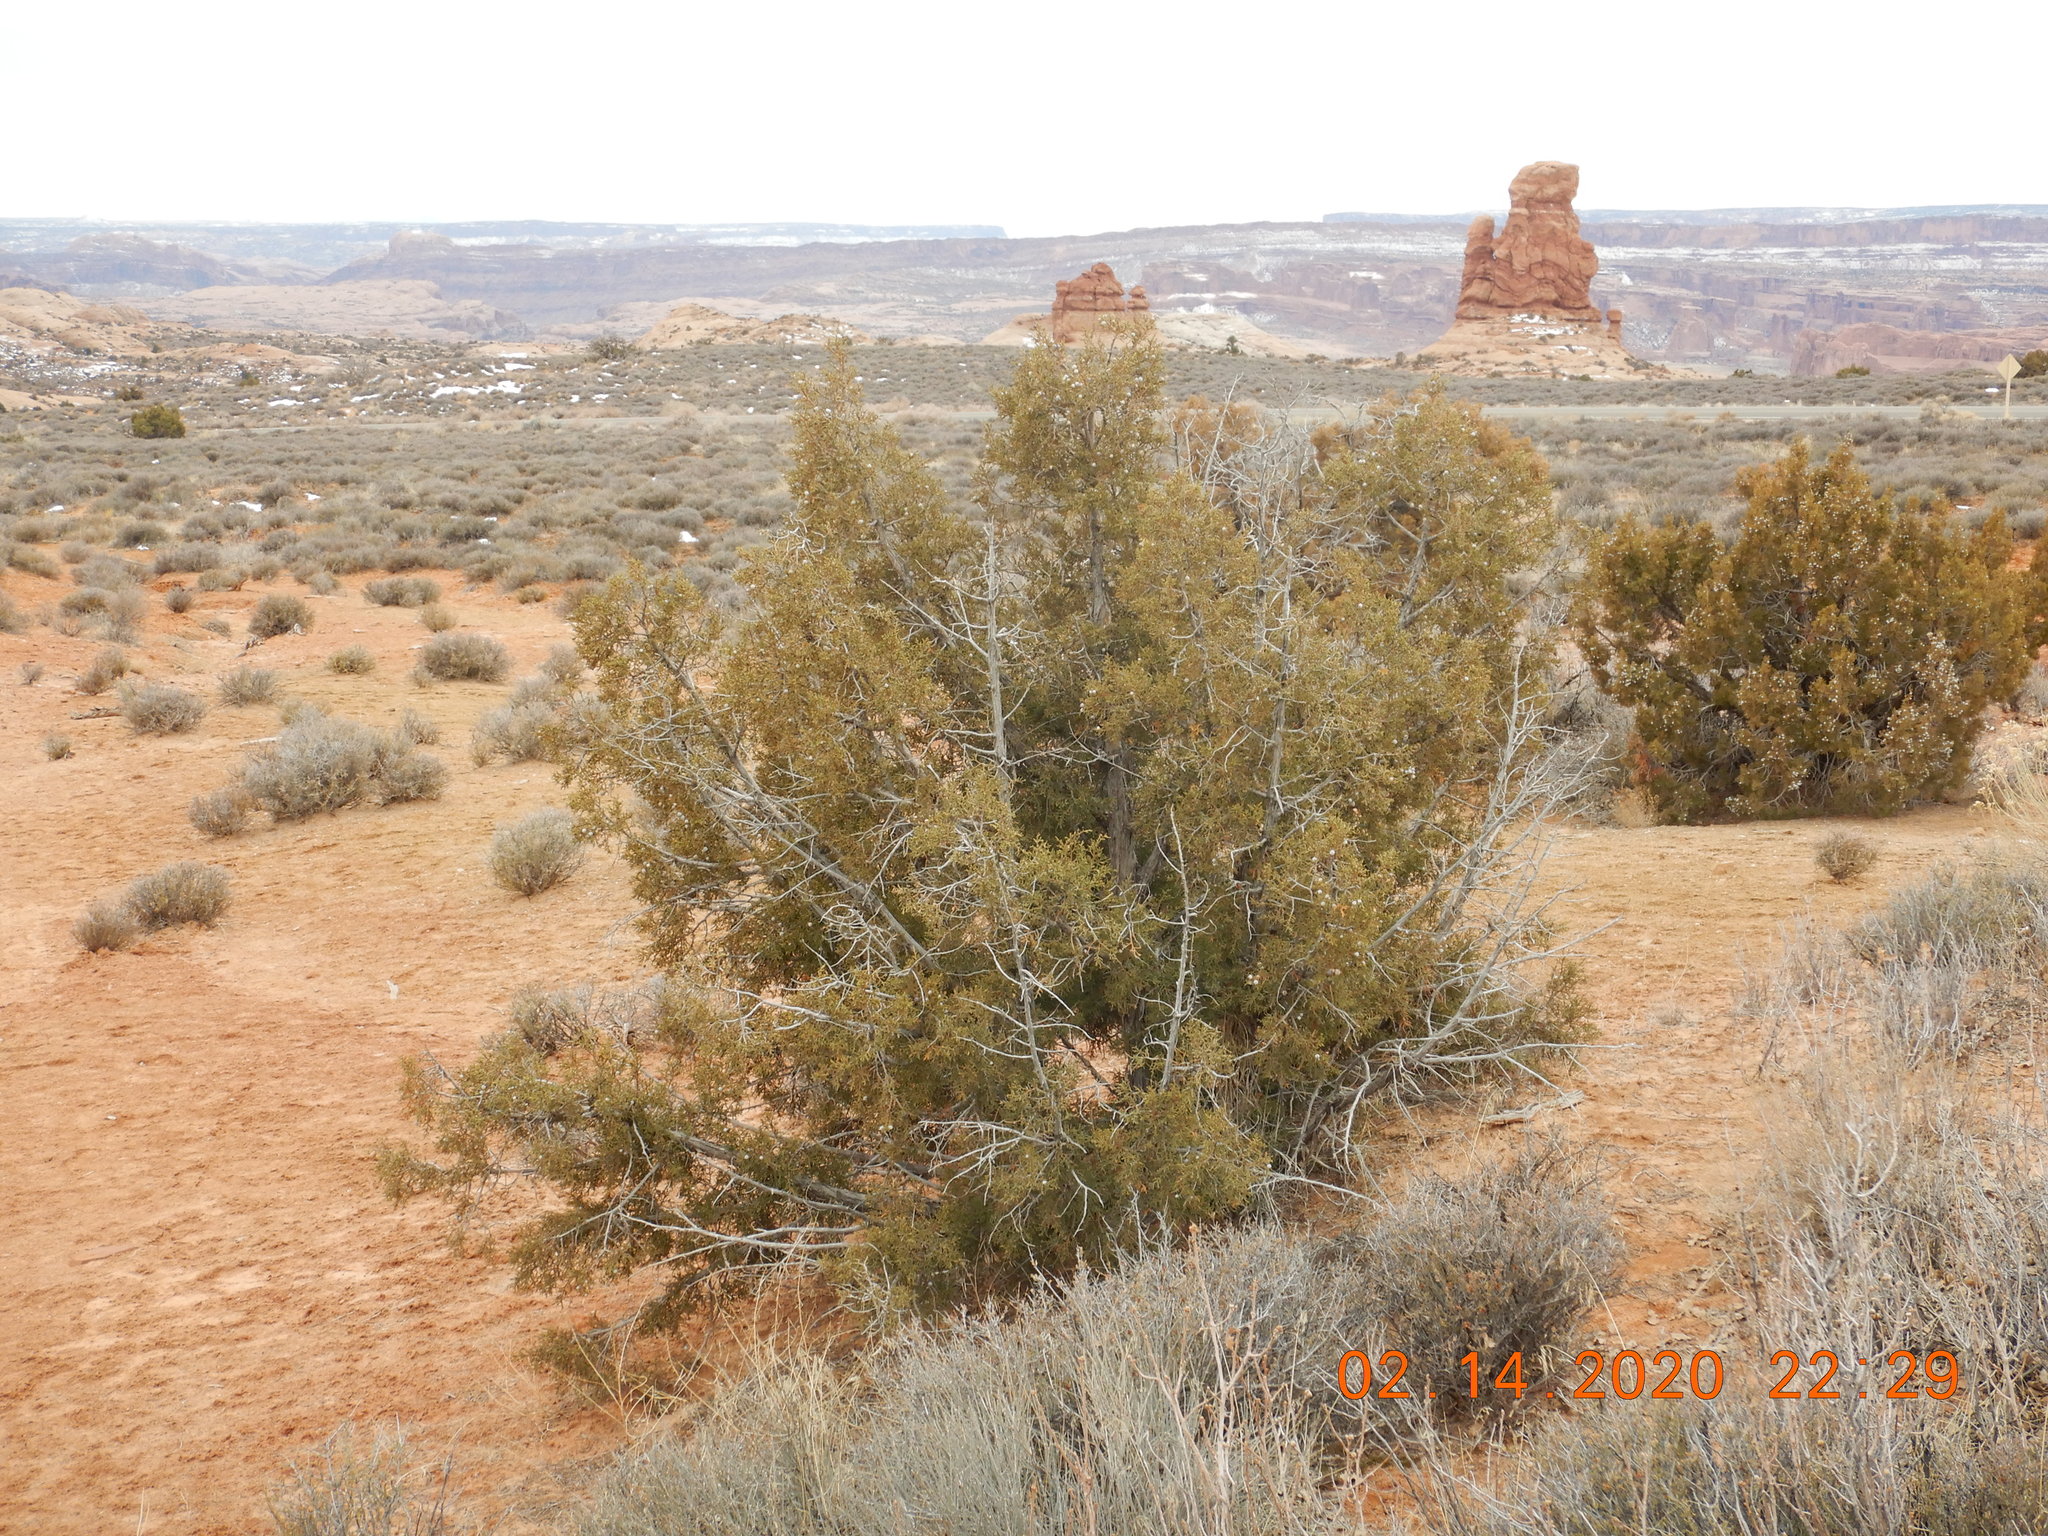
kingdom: Plantae
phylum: Tracheophyta
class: Pinopsida
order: Pinales
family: Cupressaceae
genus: Juniperus
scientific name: Juniperus osteosperma
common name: Utah juniper
